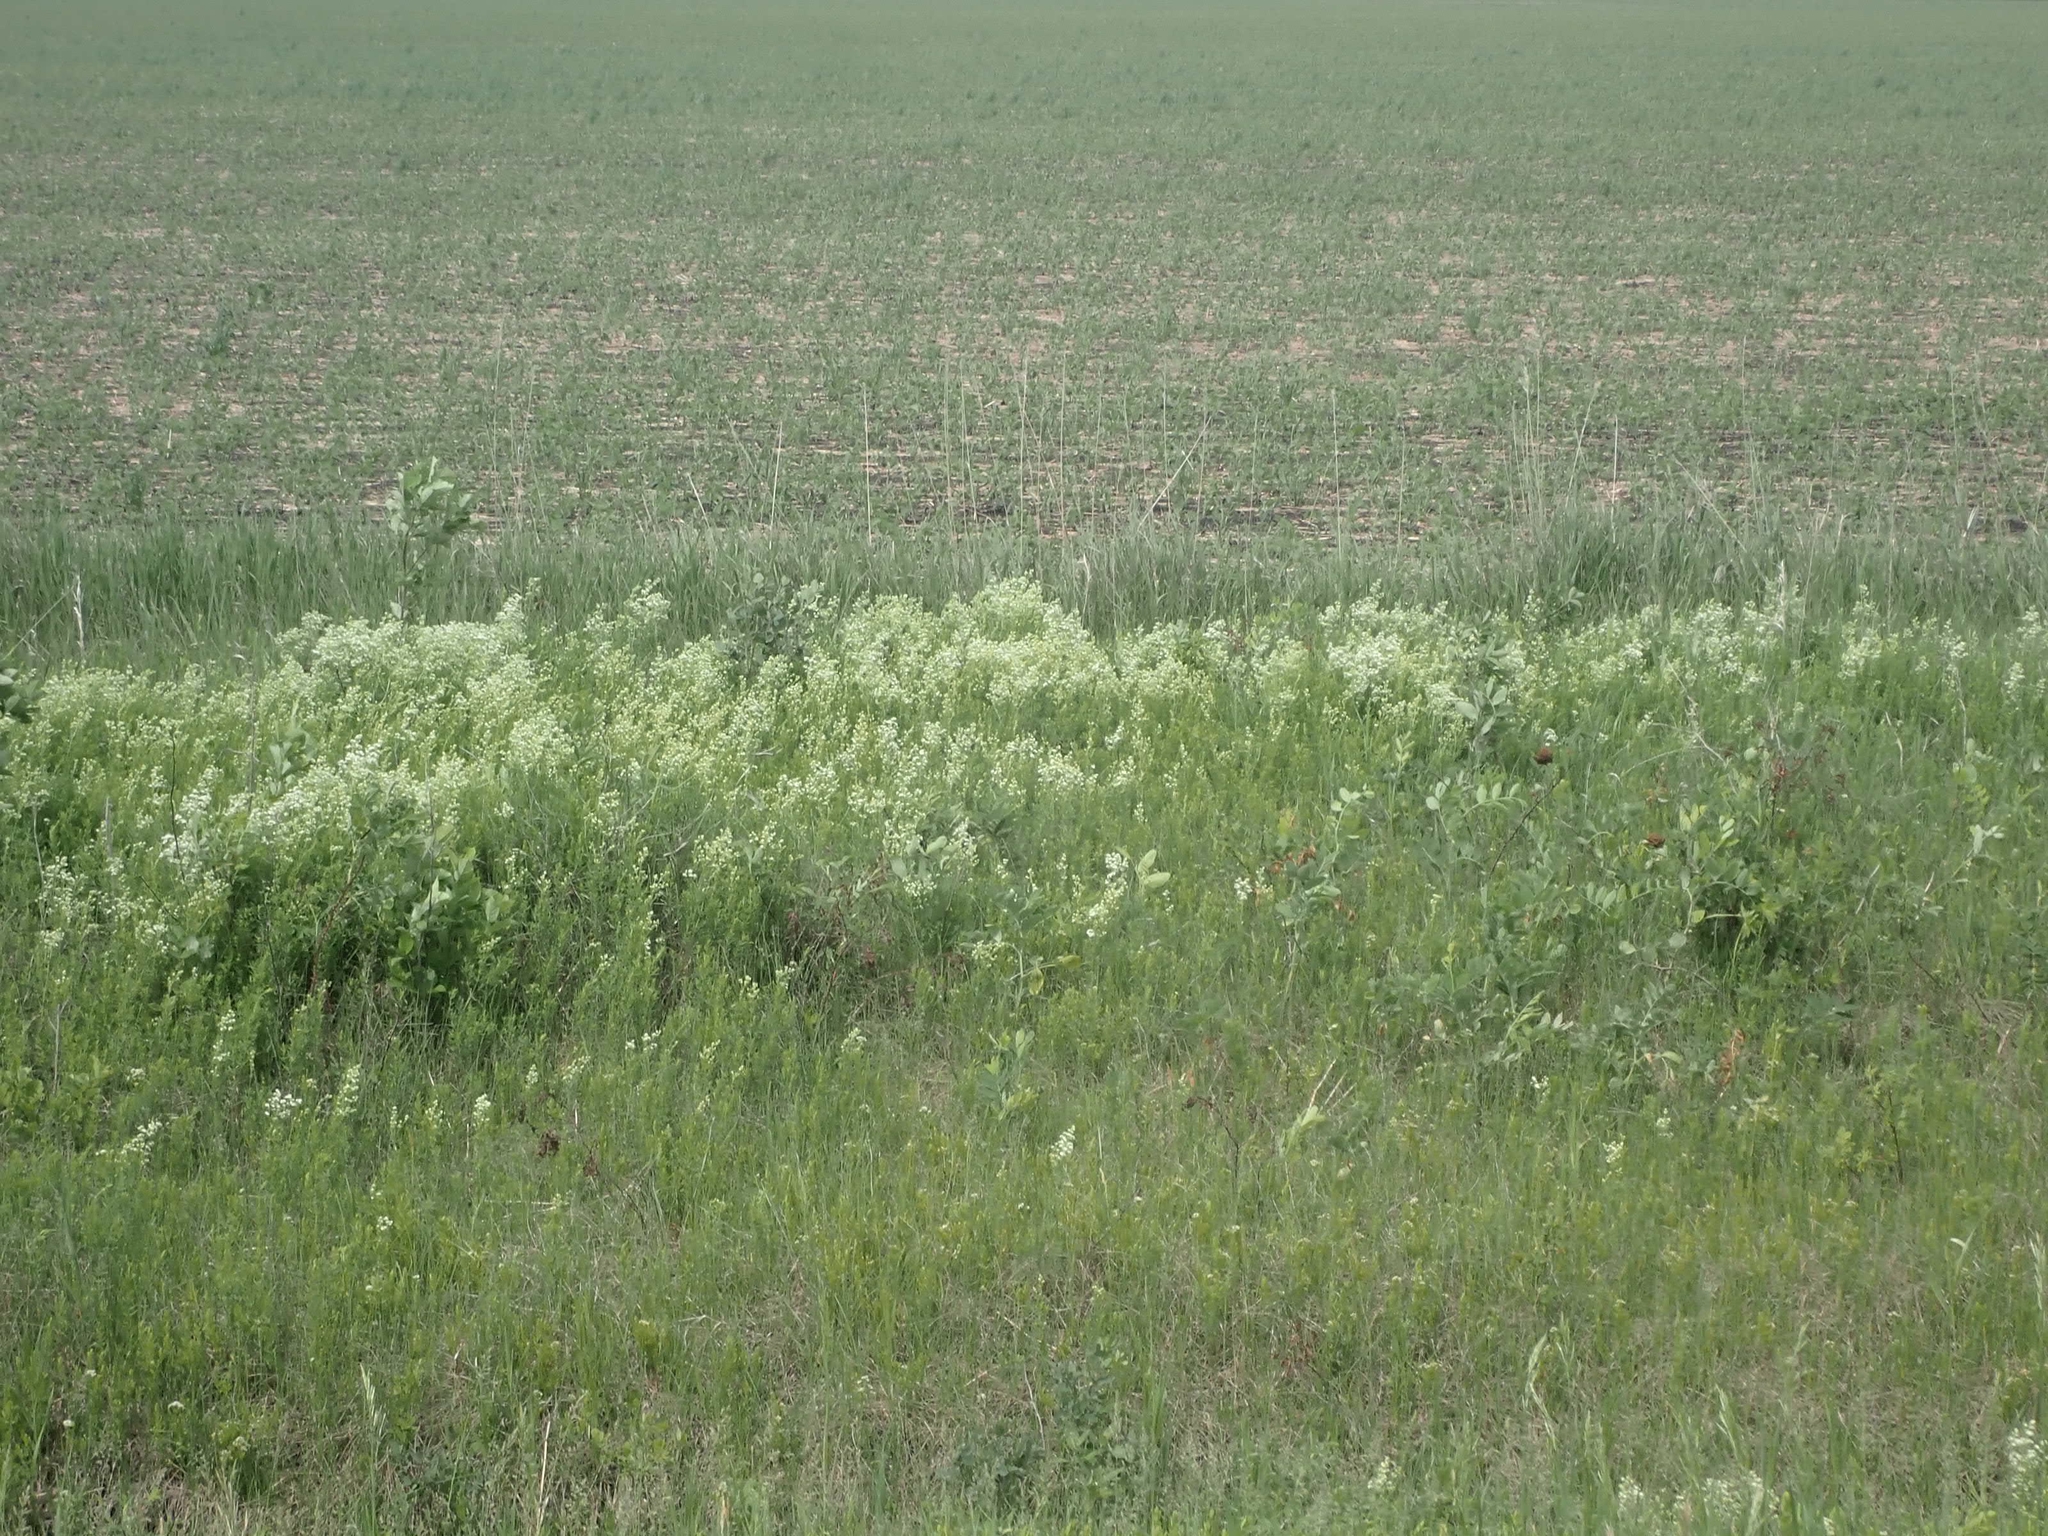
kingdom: Plantae
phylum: Tracheophyta
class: Magnoliopsida
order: Gentianales
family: Rubiaceae
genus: Galium
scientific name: Galium boreale
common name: Northern bedstraw
